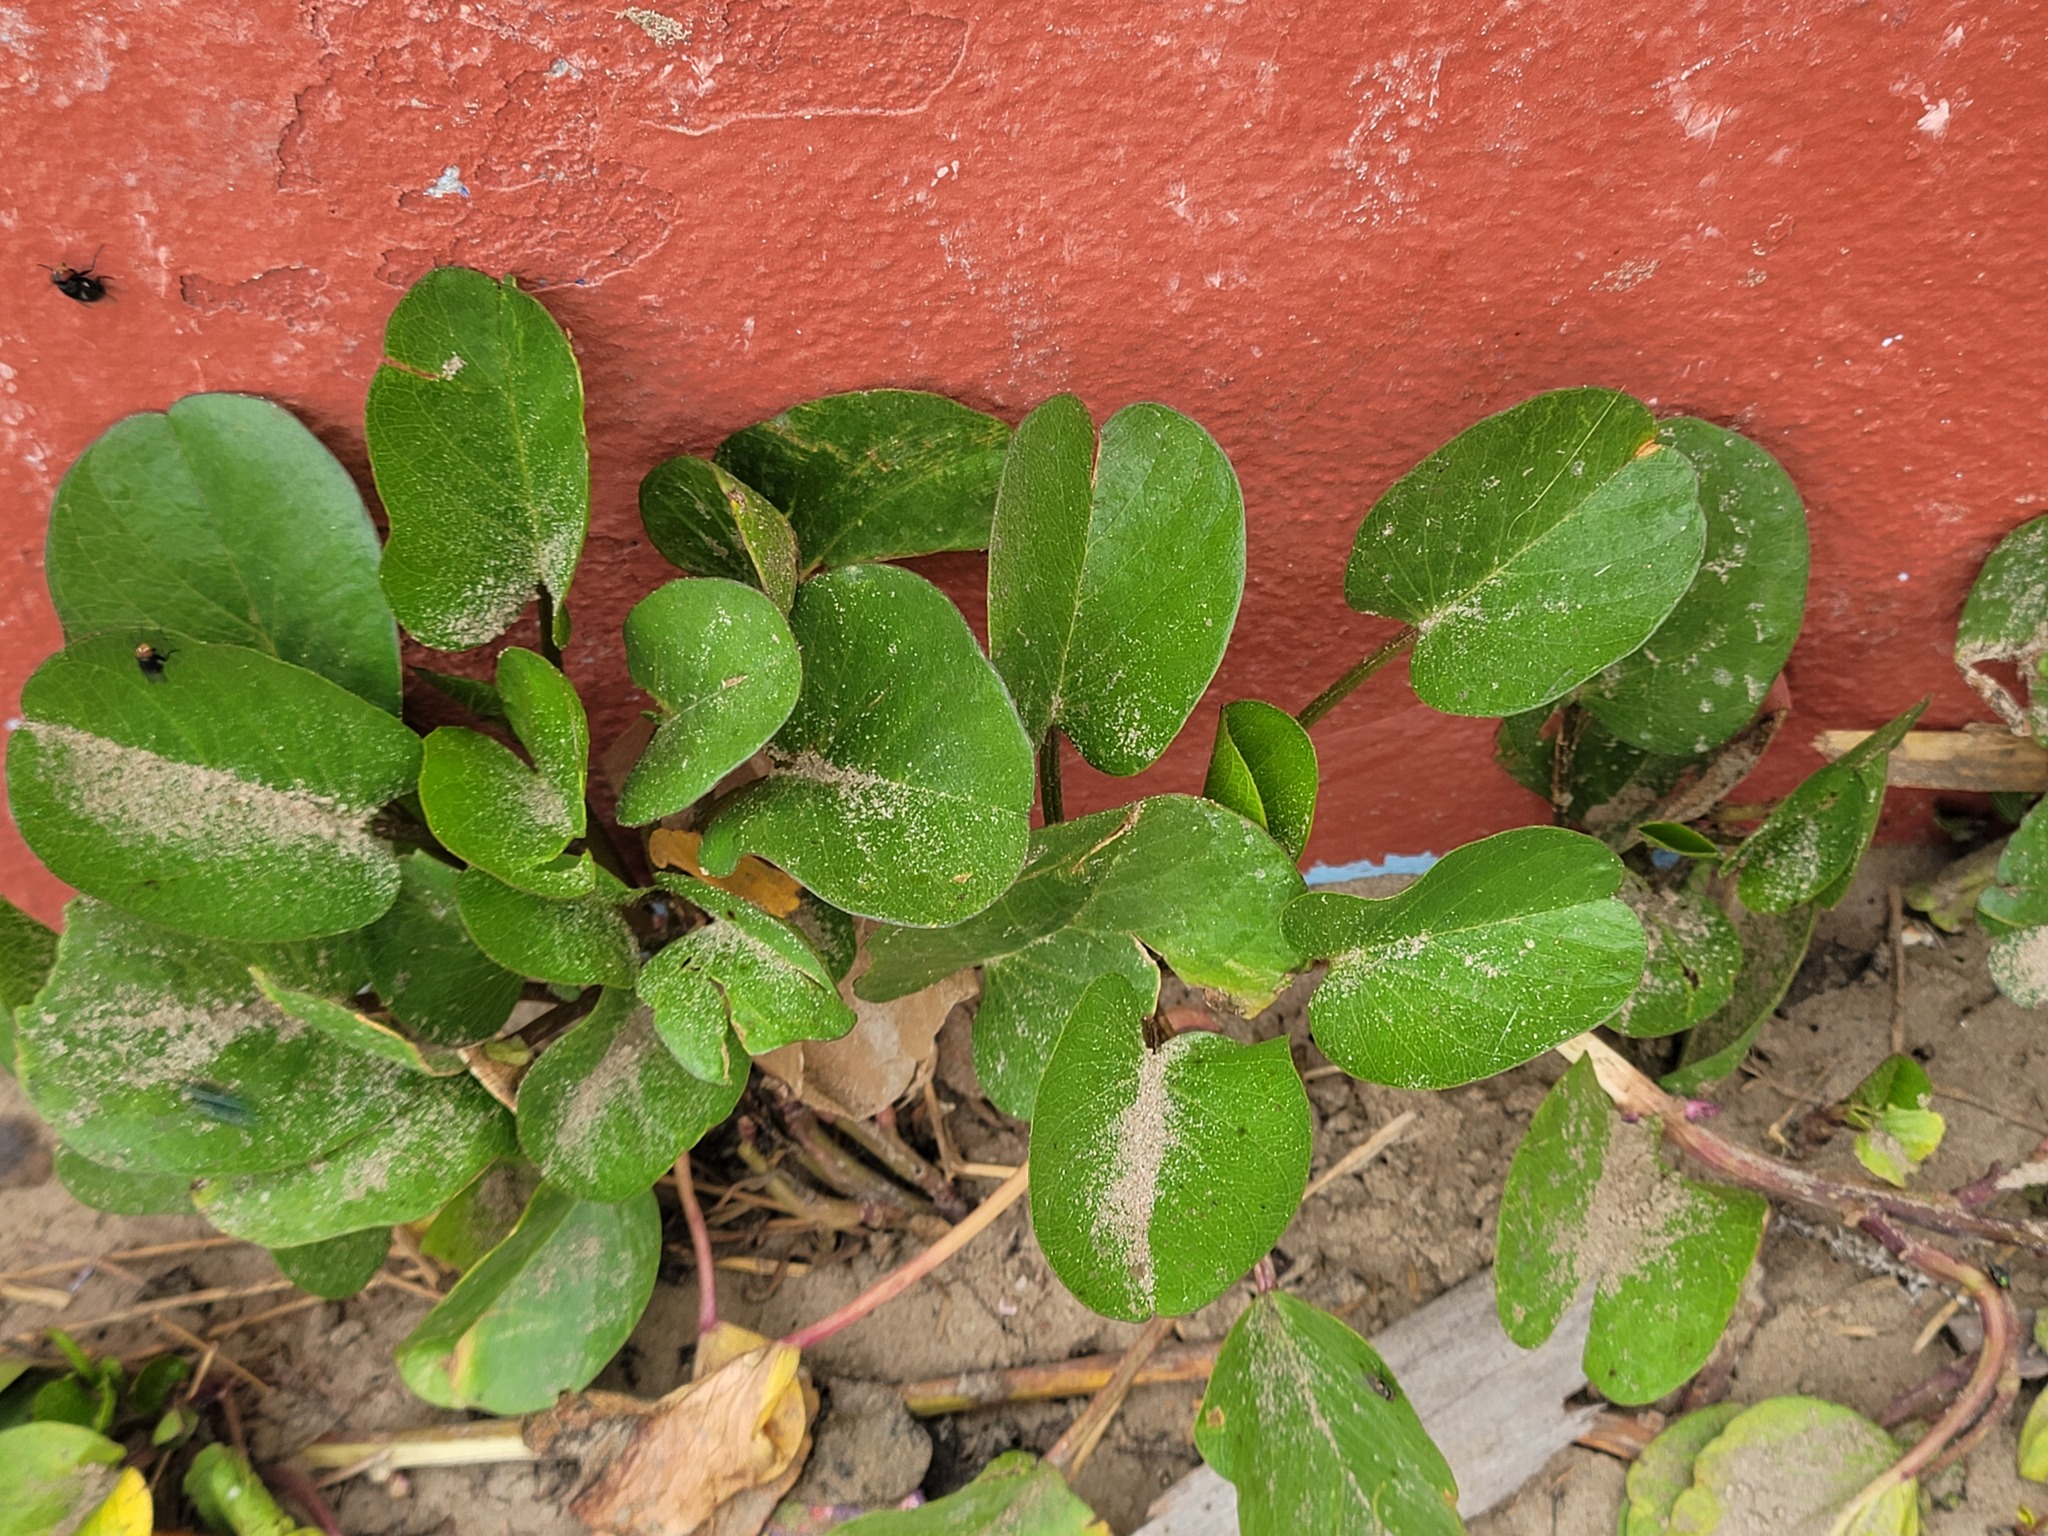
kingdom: Plantae
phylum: Tracheophyta
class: Magnoliopsida
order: Solanales
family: Convolvulaceae
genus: Ipomoea
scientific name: Ipomoea pes-caprae
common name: Beach morning glory
